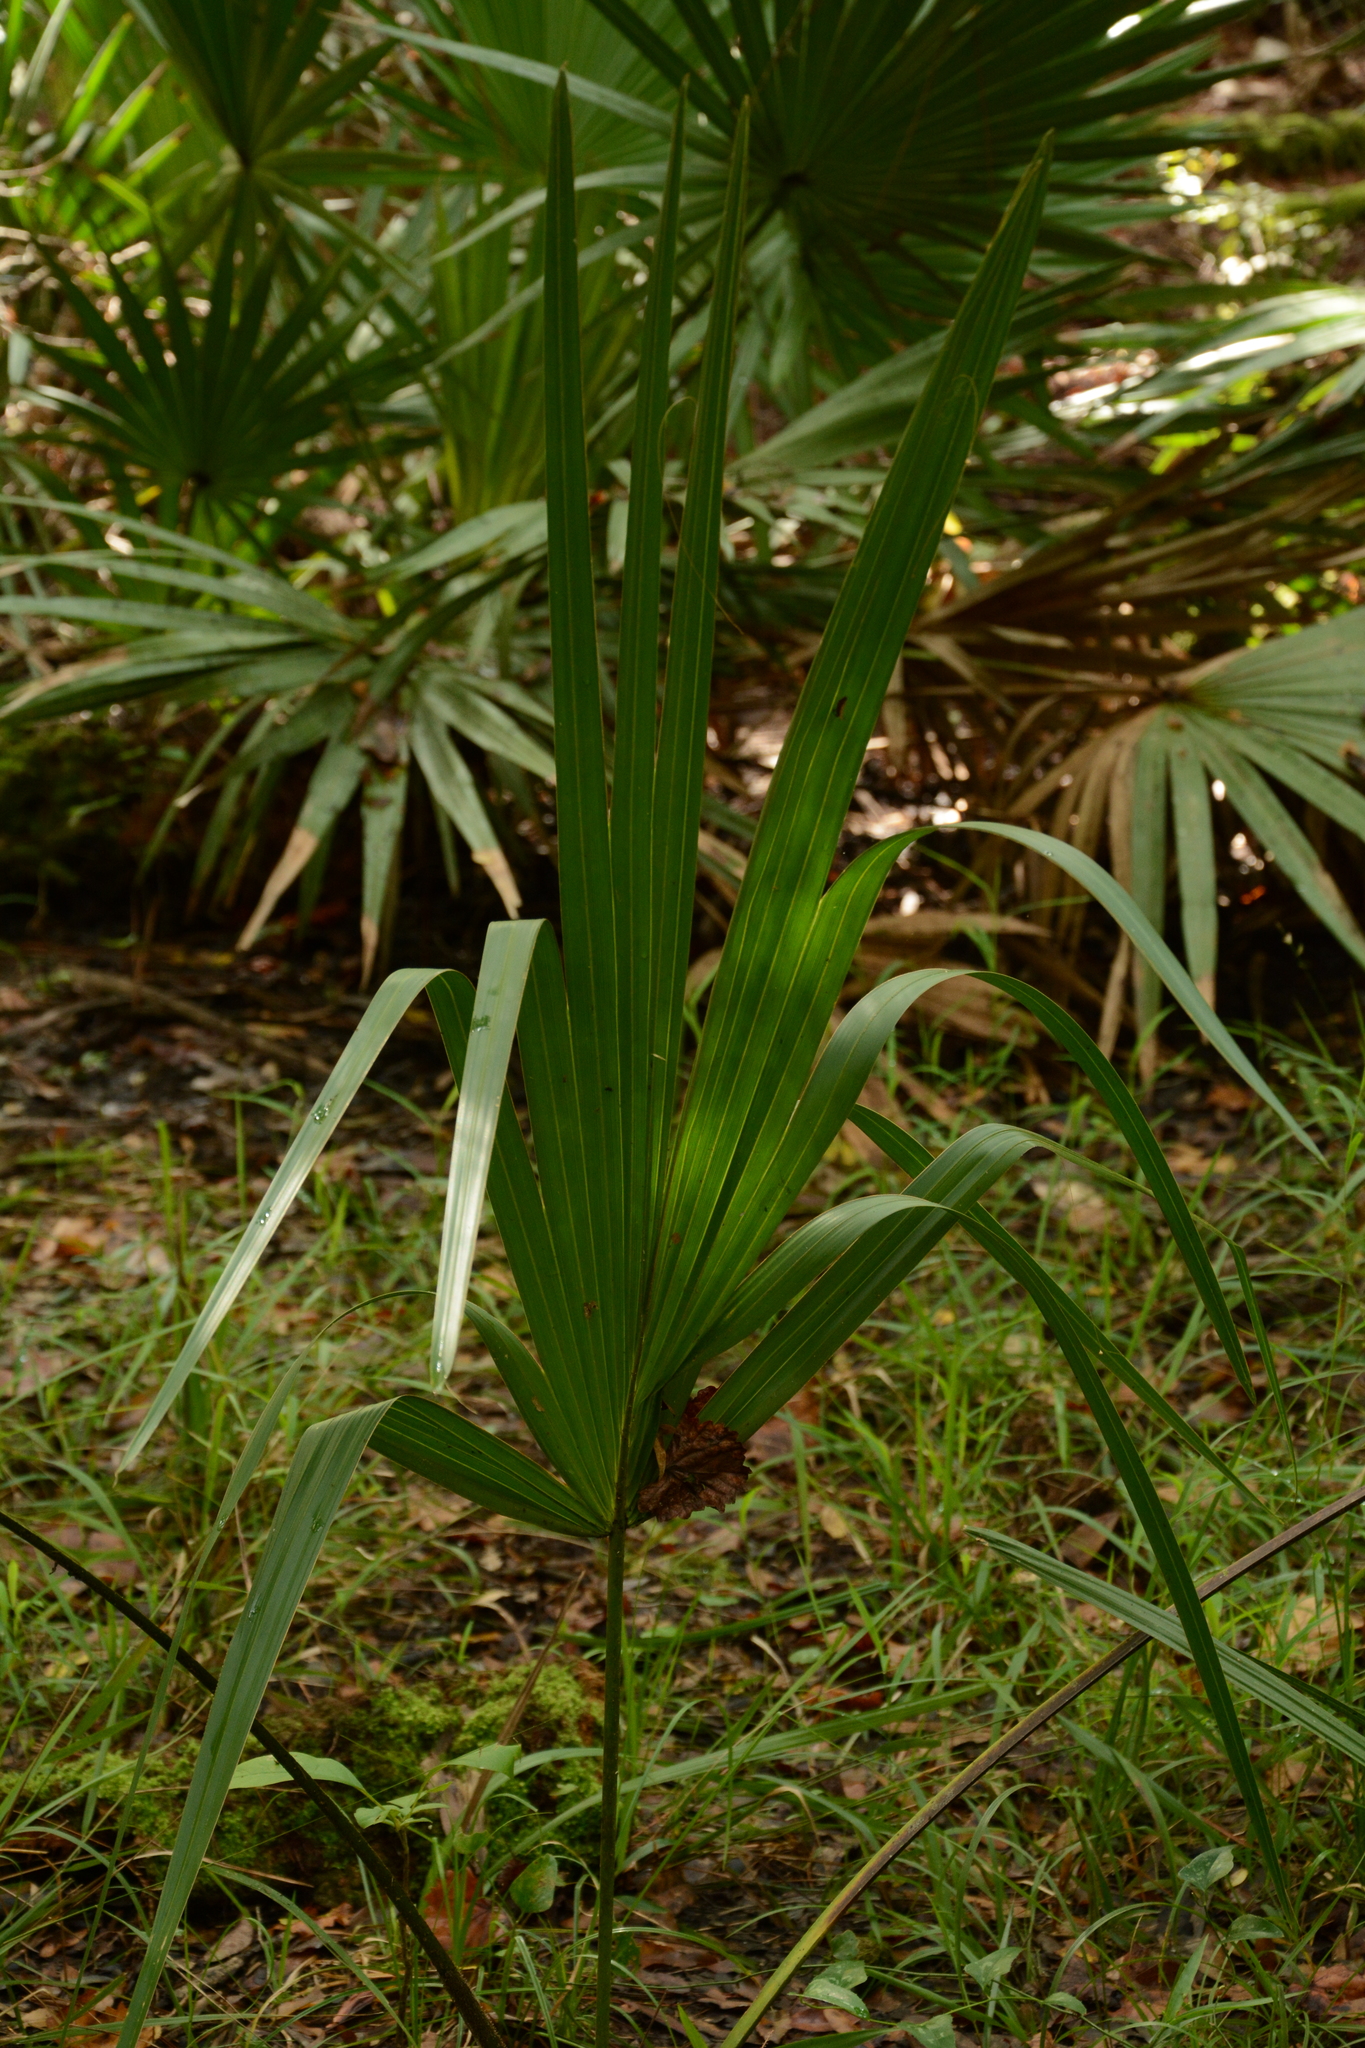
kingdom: Plantae
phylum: Tracheophyta
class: Liliopsida
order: Arecales
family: Arecaceae
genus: Sabal
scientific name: Sabal minor
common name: Dwarf palmetto
